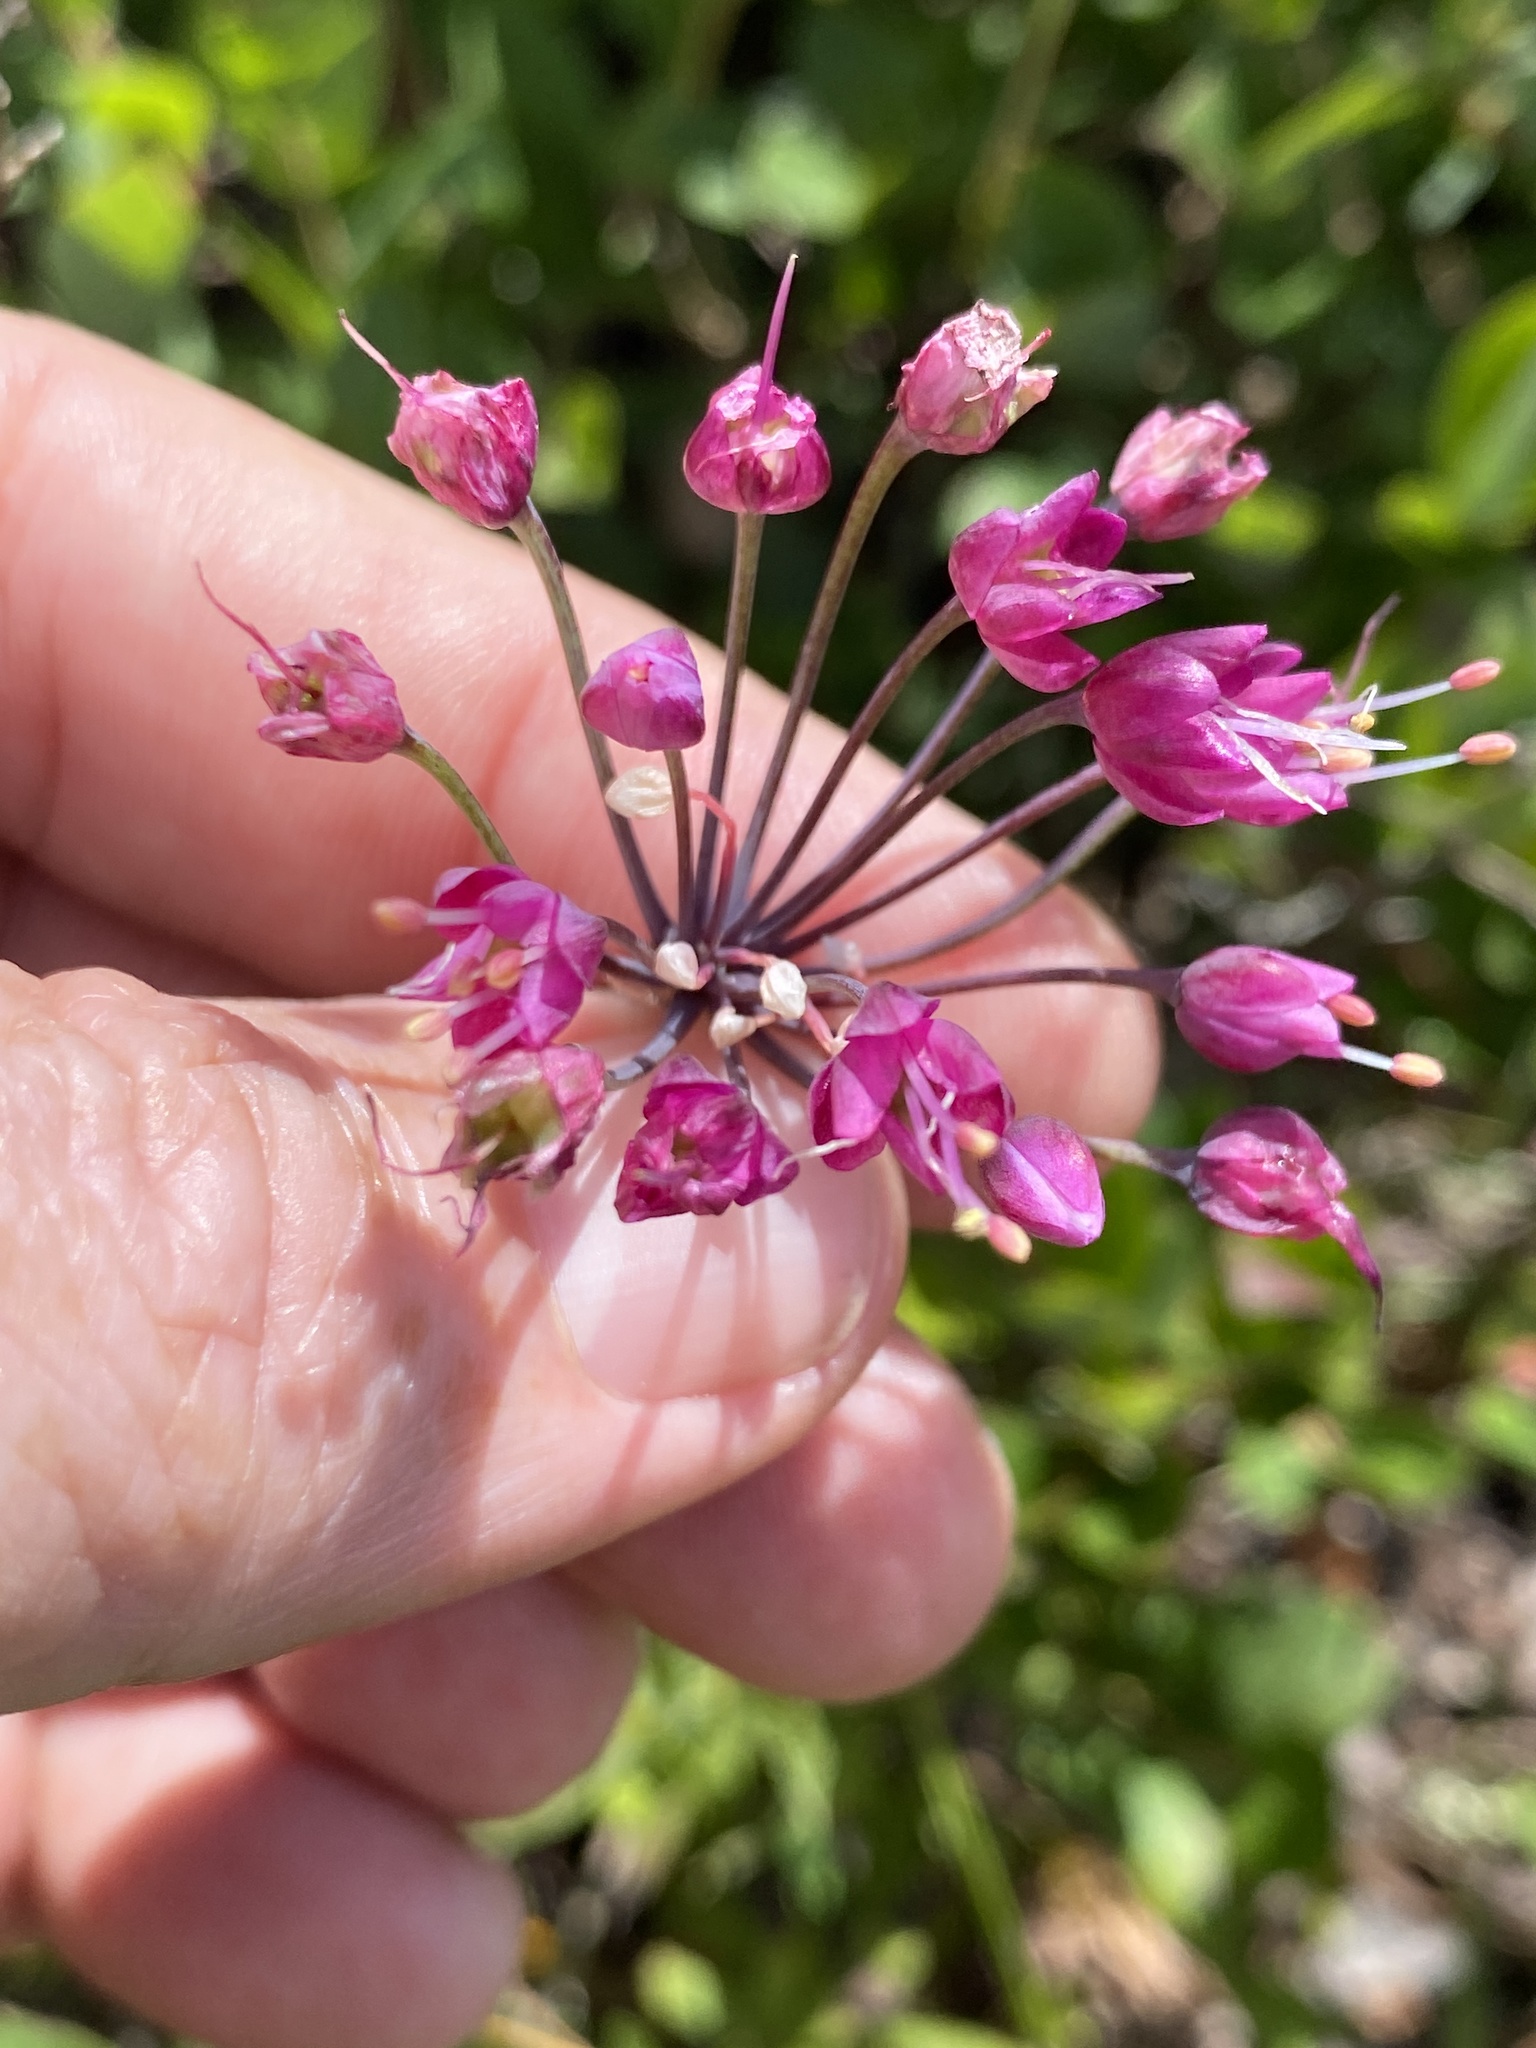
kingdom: Plantae
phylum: Tracheophyta
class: Liliopsida
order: Asparagales
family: Amaryllidaceae
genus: Allium
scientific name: Allium cernuum
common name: Nodding onion
